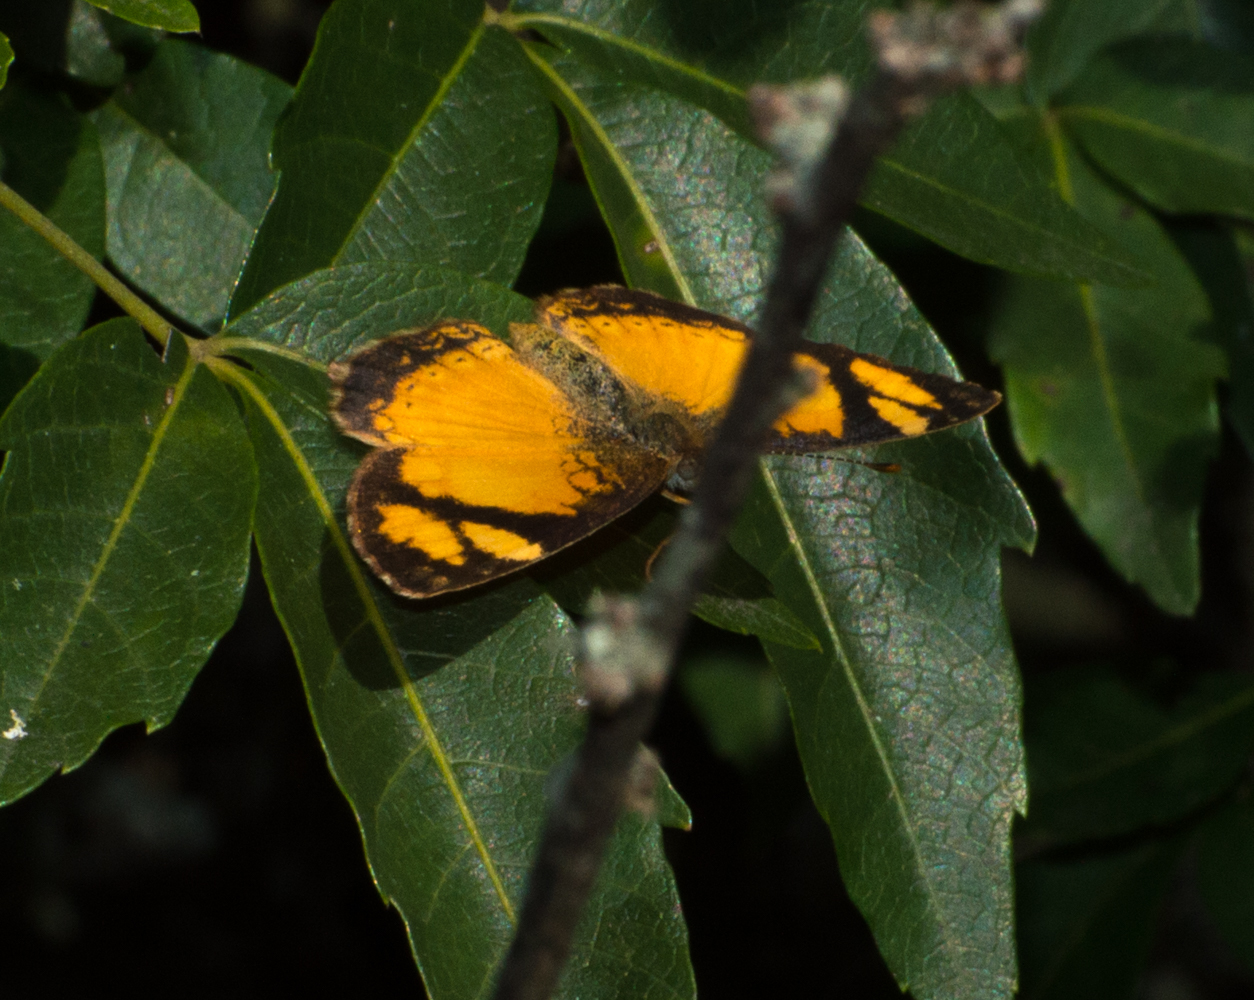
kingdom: Animalia
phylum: Arthropoda
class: Insecta
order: Lepidoptera
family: Nymphalidae
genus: Tegosa
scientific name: Tegosa claudina
